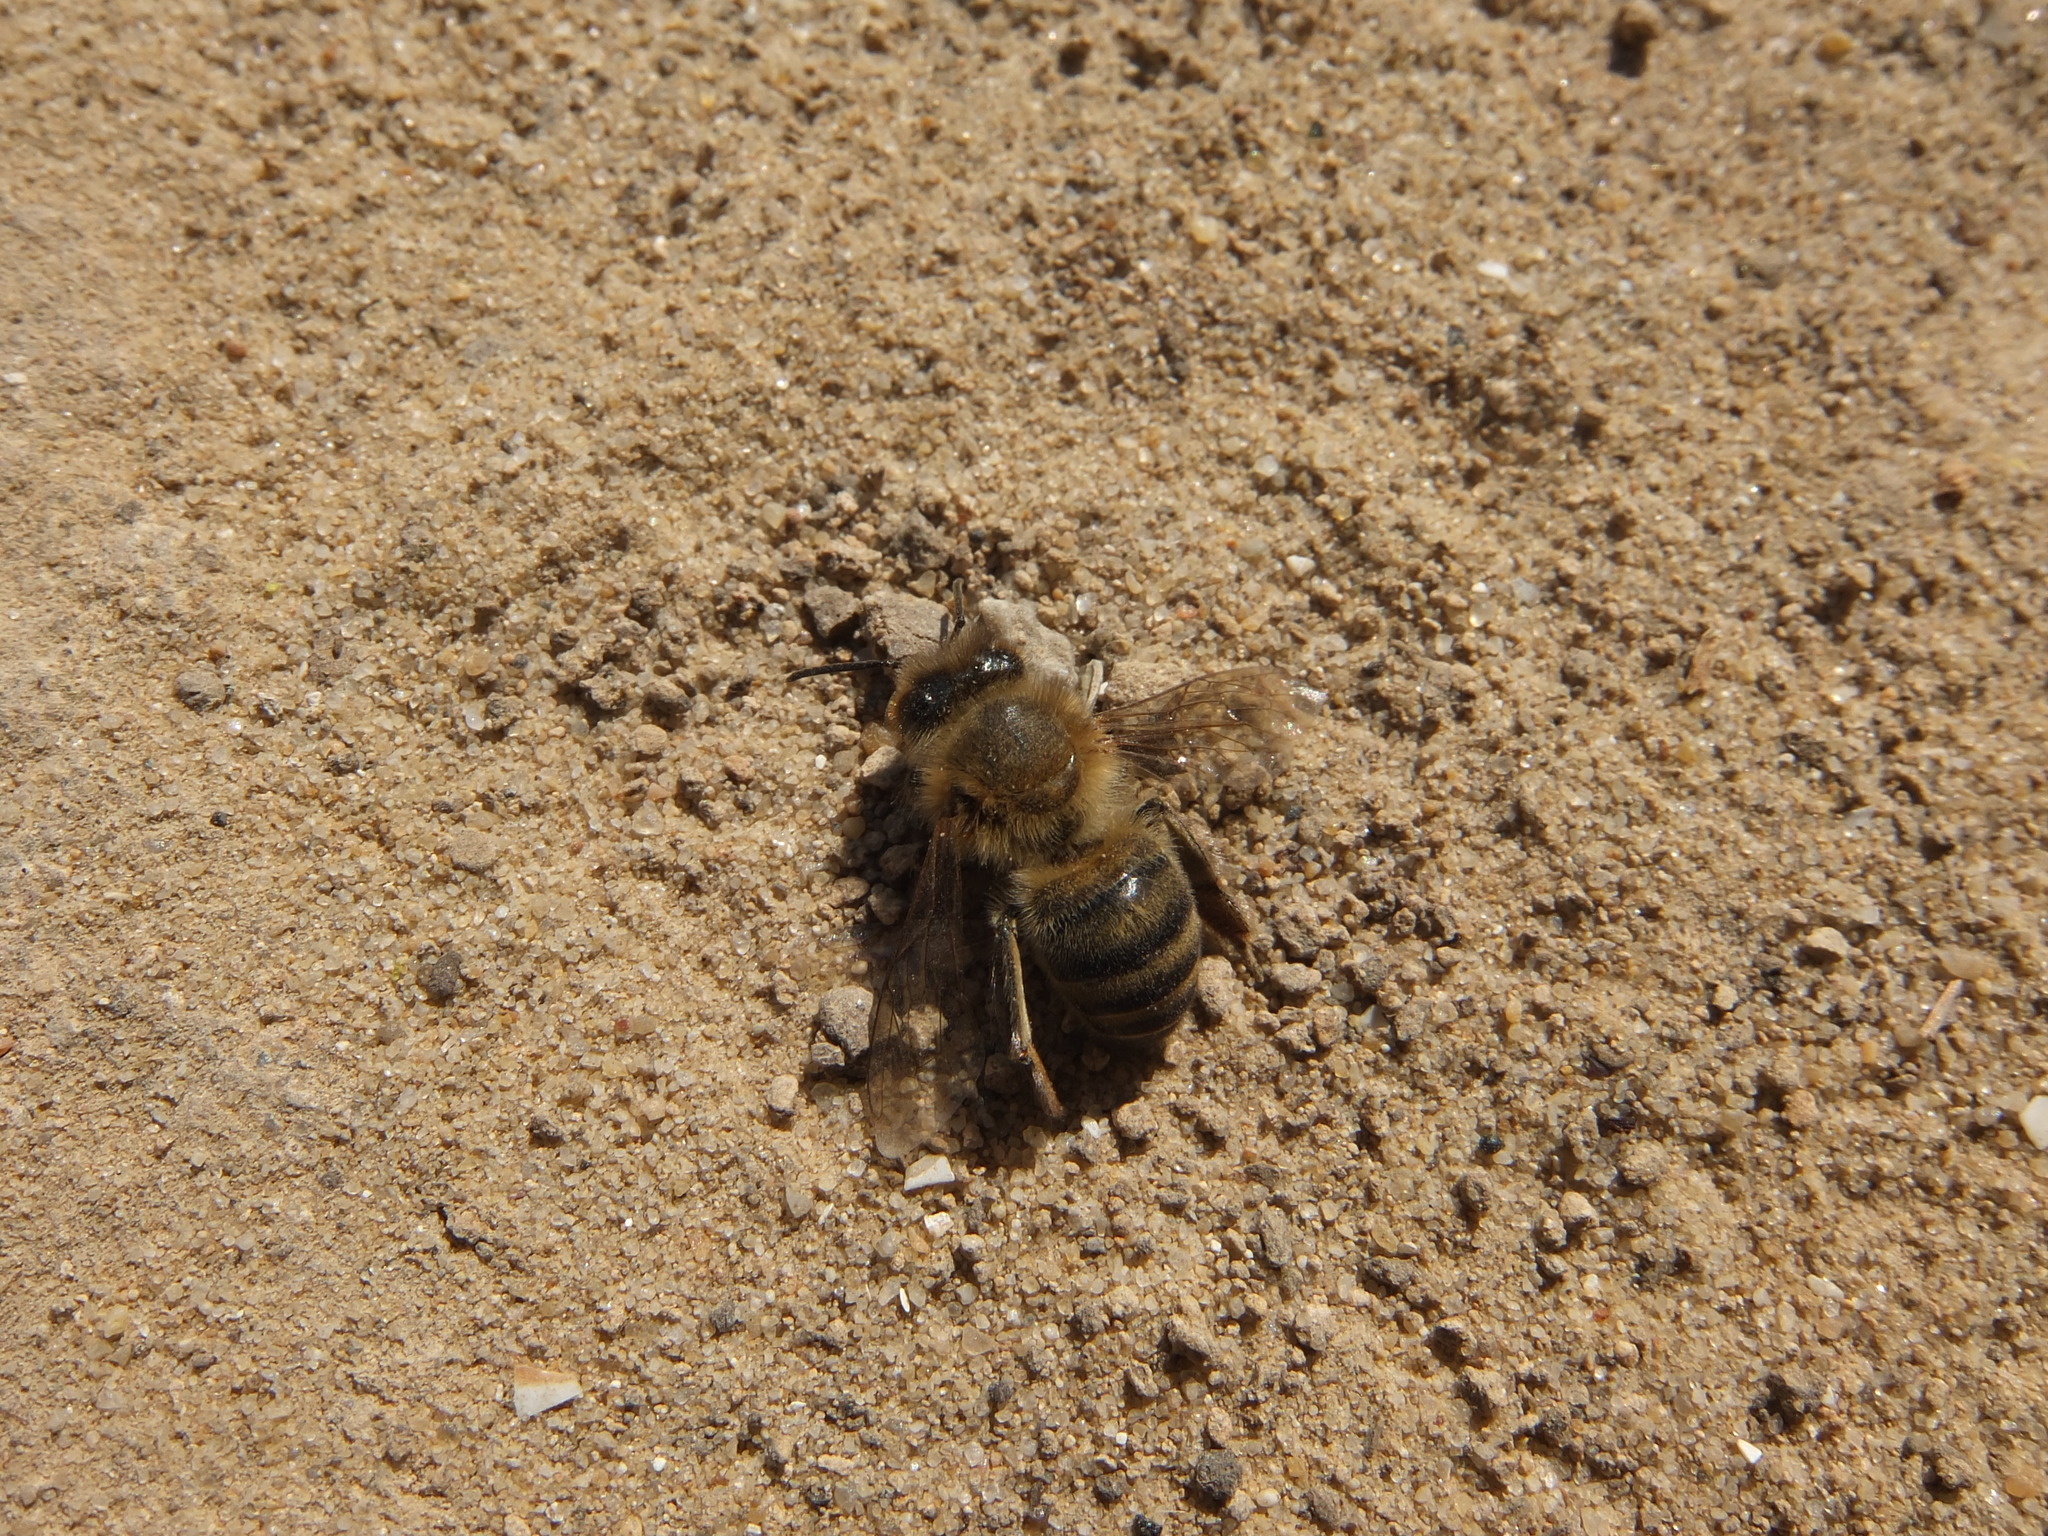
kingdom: Animalia
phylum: Arthropoda
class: Insecta
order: Hymenoptera
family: Apidae
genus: Apis
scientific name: Apis mellifera
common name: Honey bee
